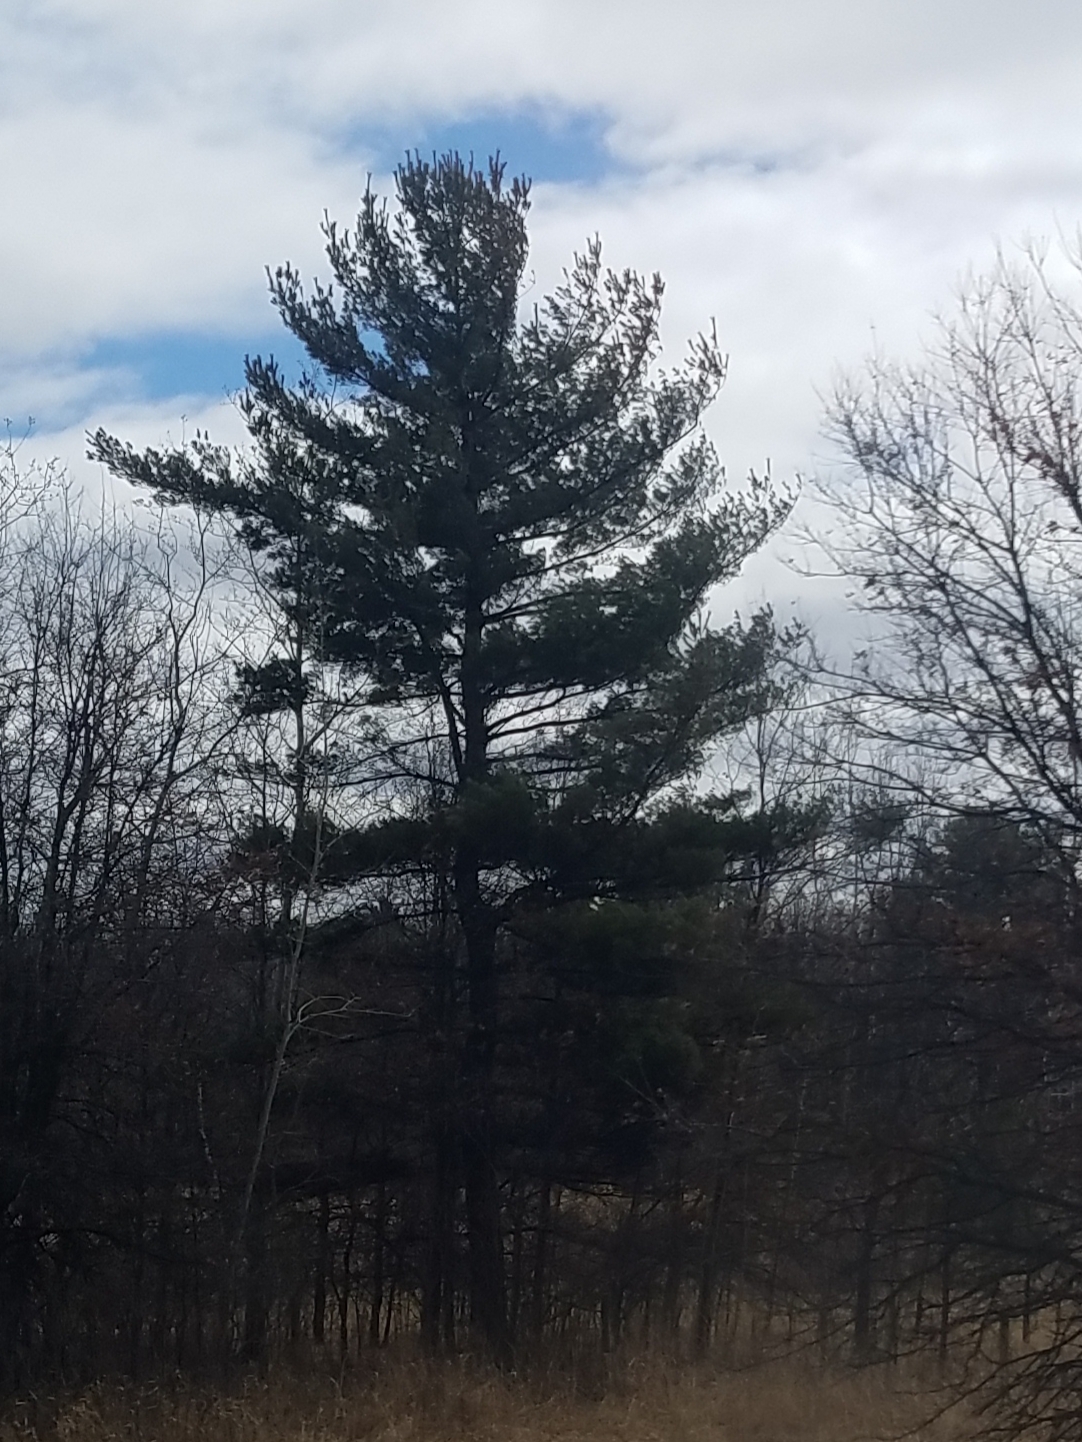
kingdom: Plantae
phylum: Tracheophyta
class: Pinopsida
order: Pinales
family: Pinaceae
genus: Pinus
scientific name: Pinus strobus
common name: Weymouth pine
